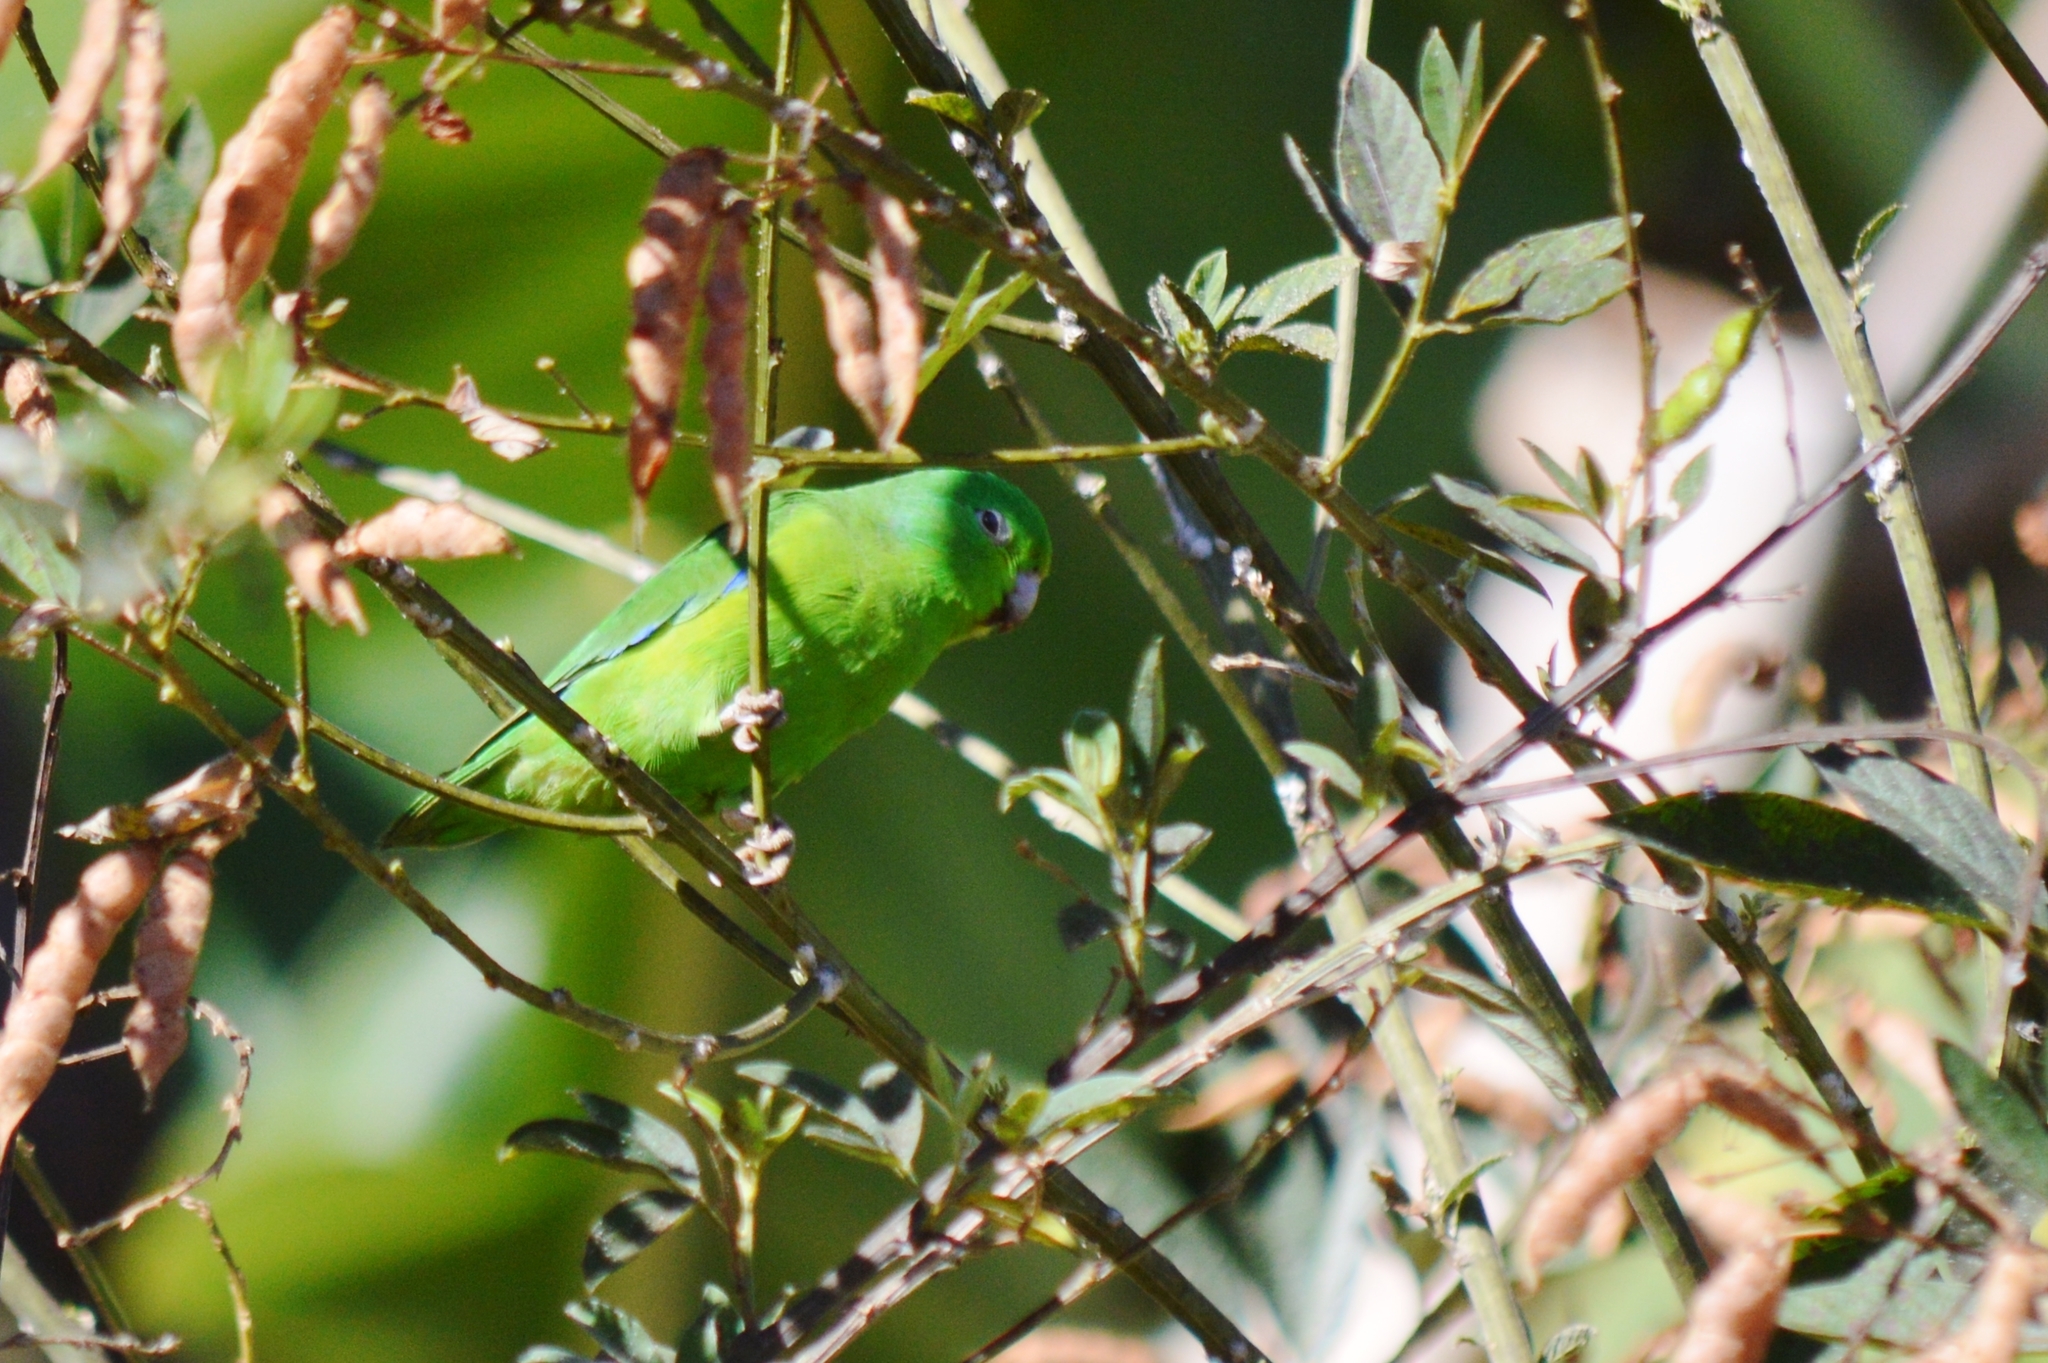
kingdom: Animalia
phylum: Chordata
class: Aves
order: Psittaciformes
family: Psittacidae
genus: Forpus
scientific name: Forpus xanthopterygius
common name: Blue-winged parrotlet
